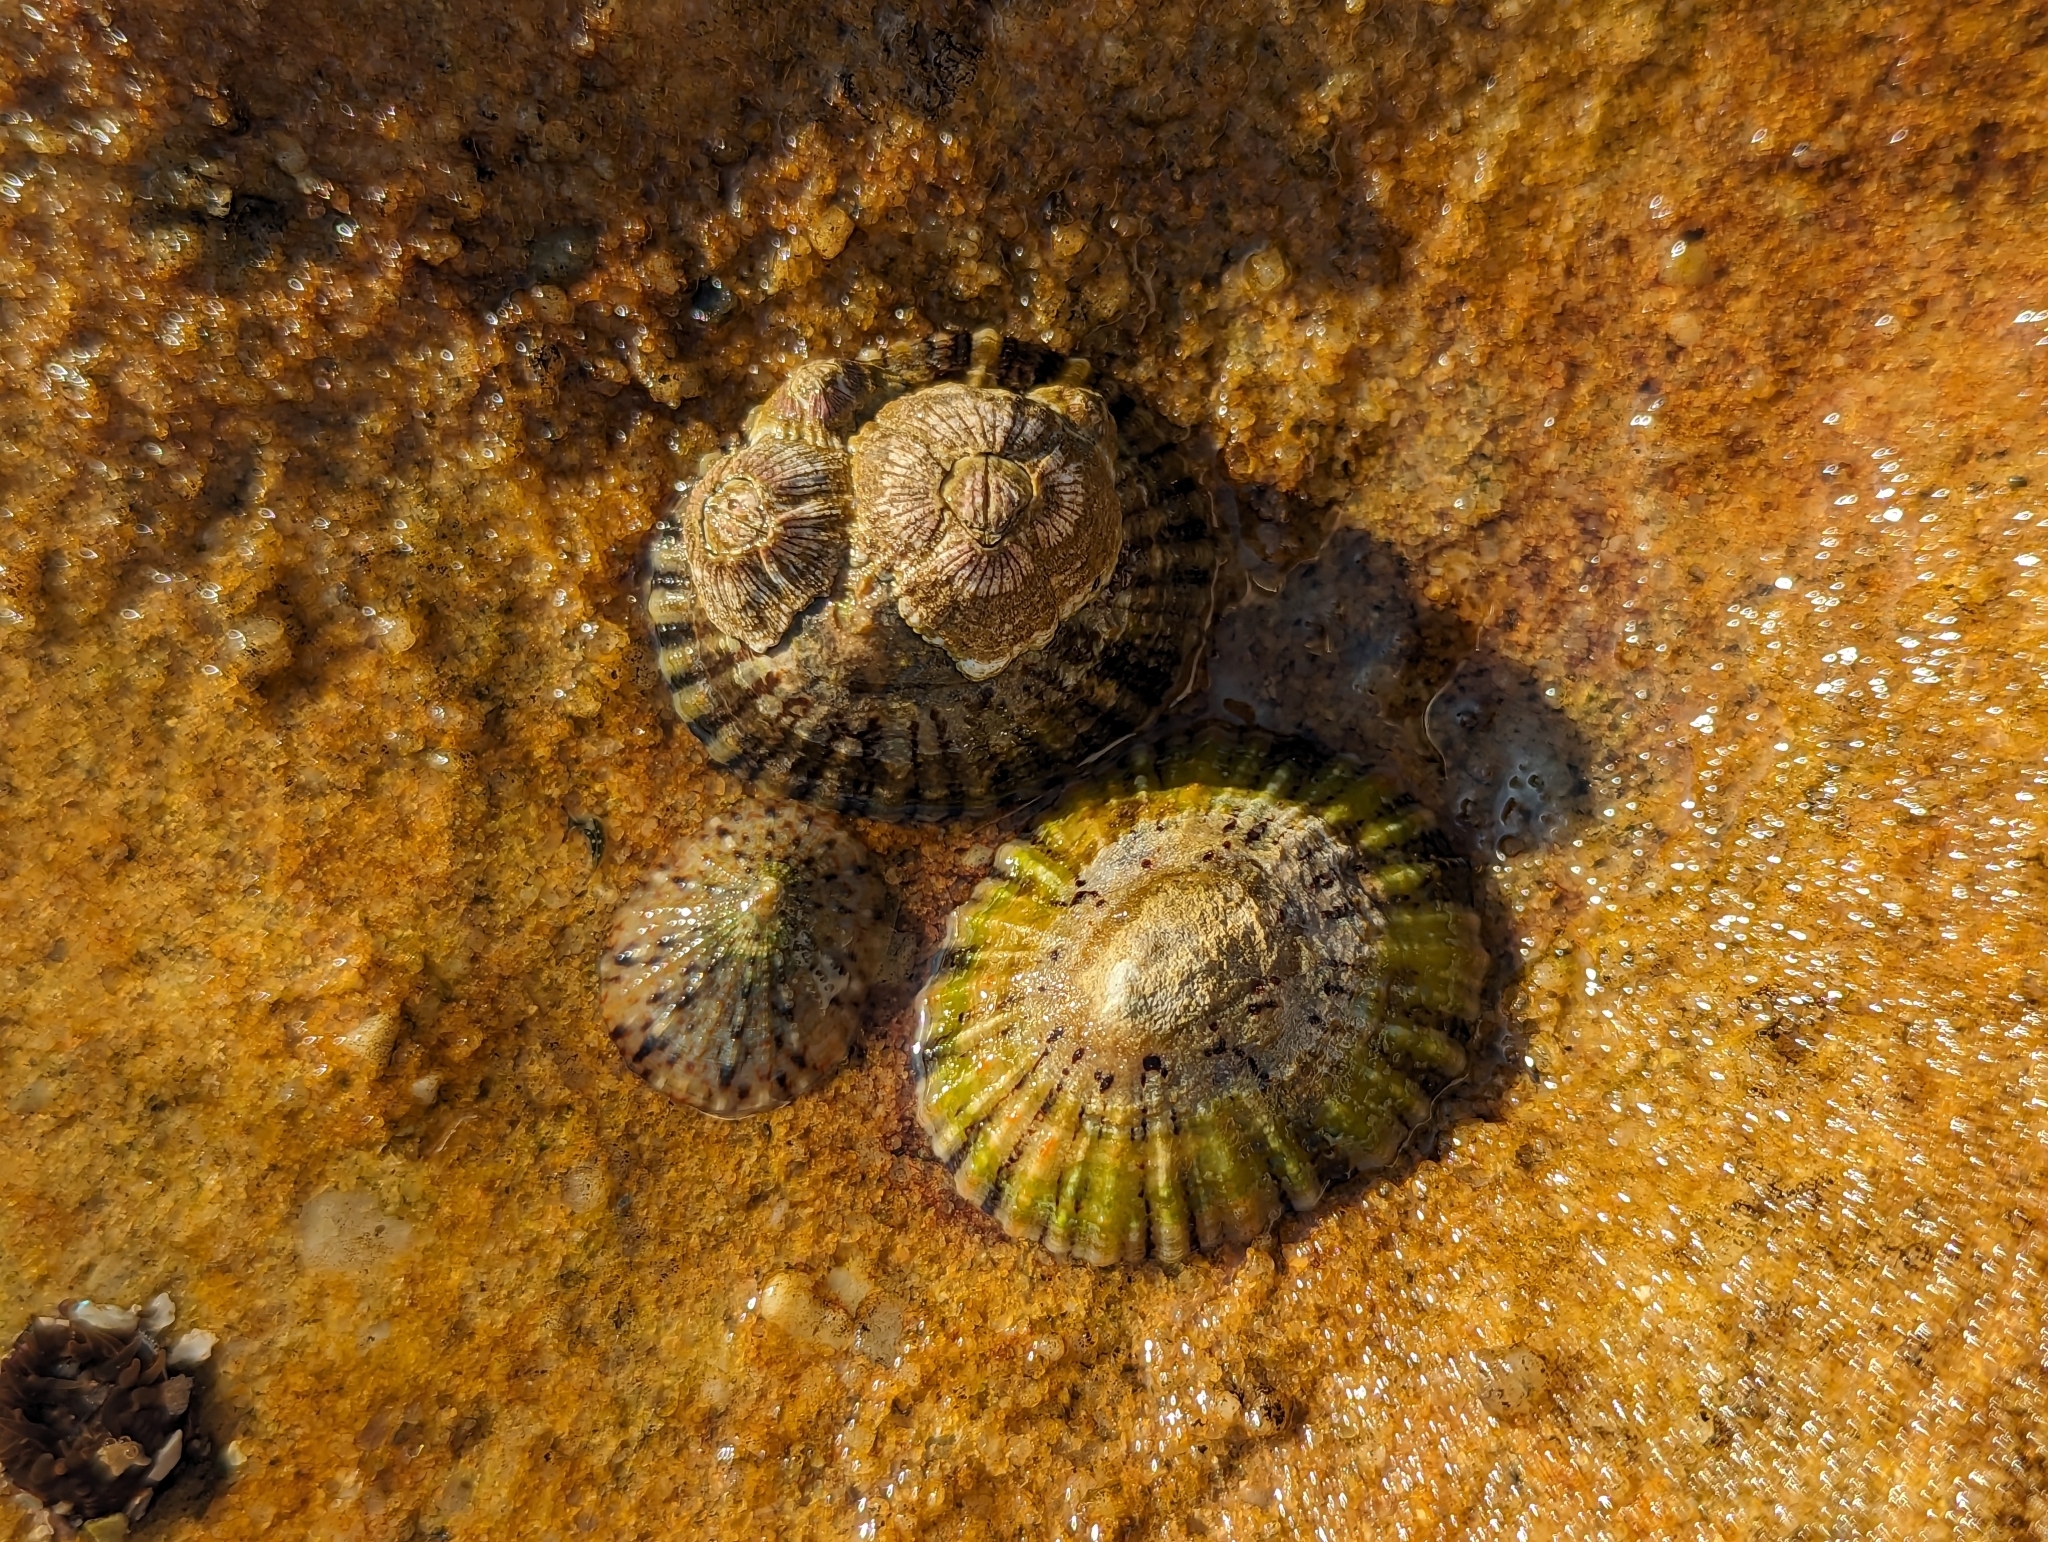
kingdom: Animalia
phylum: Mollusca
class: Gastropoda
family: Nacellidae
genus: Cellana
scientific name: Cellana tramoserica
